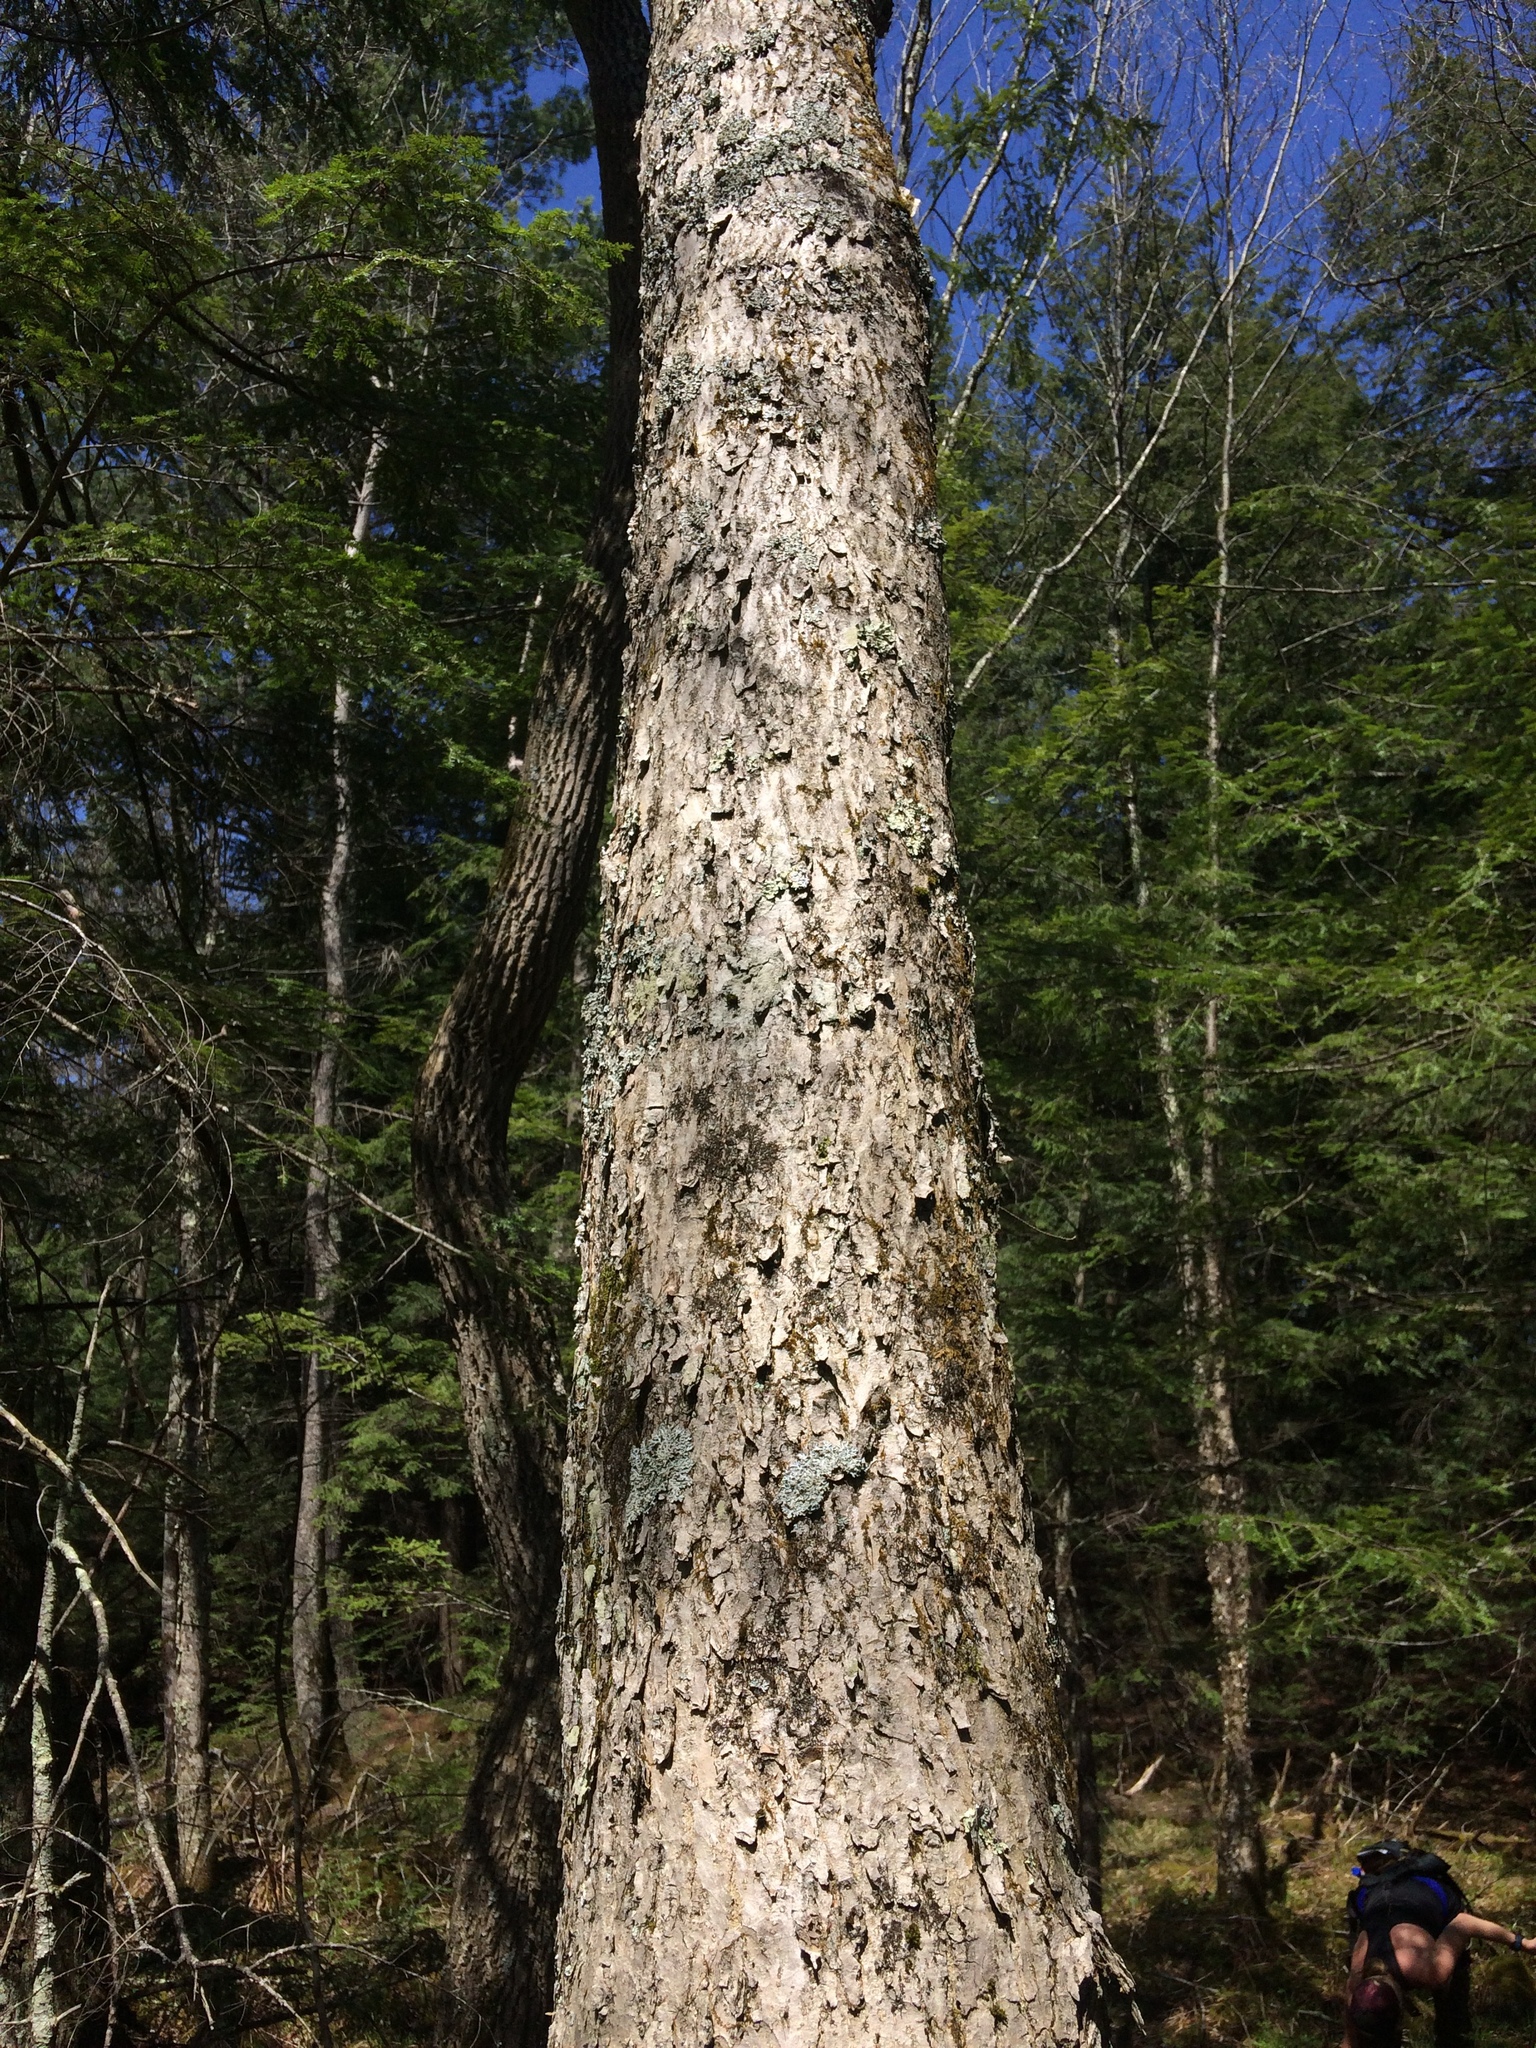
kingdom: Plantae
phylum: Tracheophyta
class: Magnoliopsida
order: Lamiales
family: Oleaceae
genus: Fraxinus
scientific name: Fraxinus nigra
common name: Black ash
